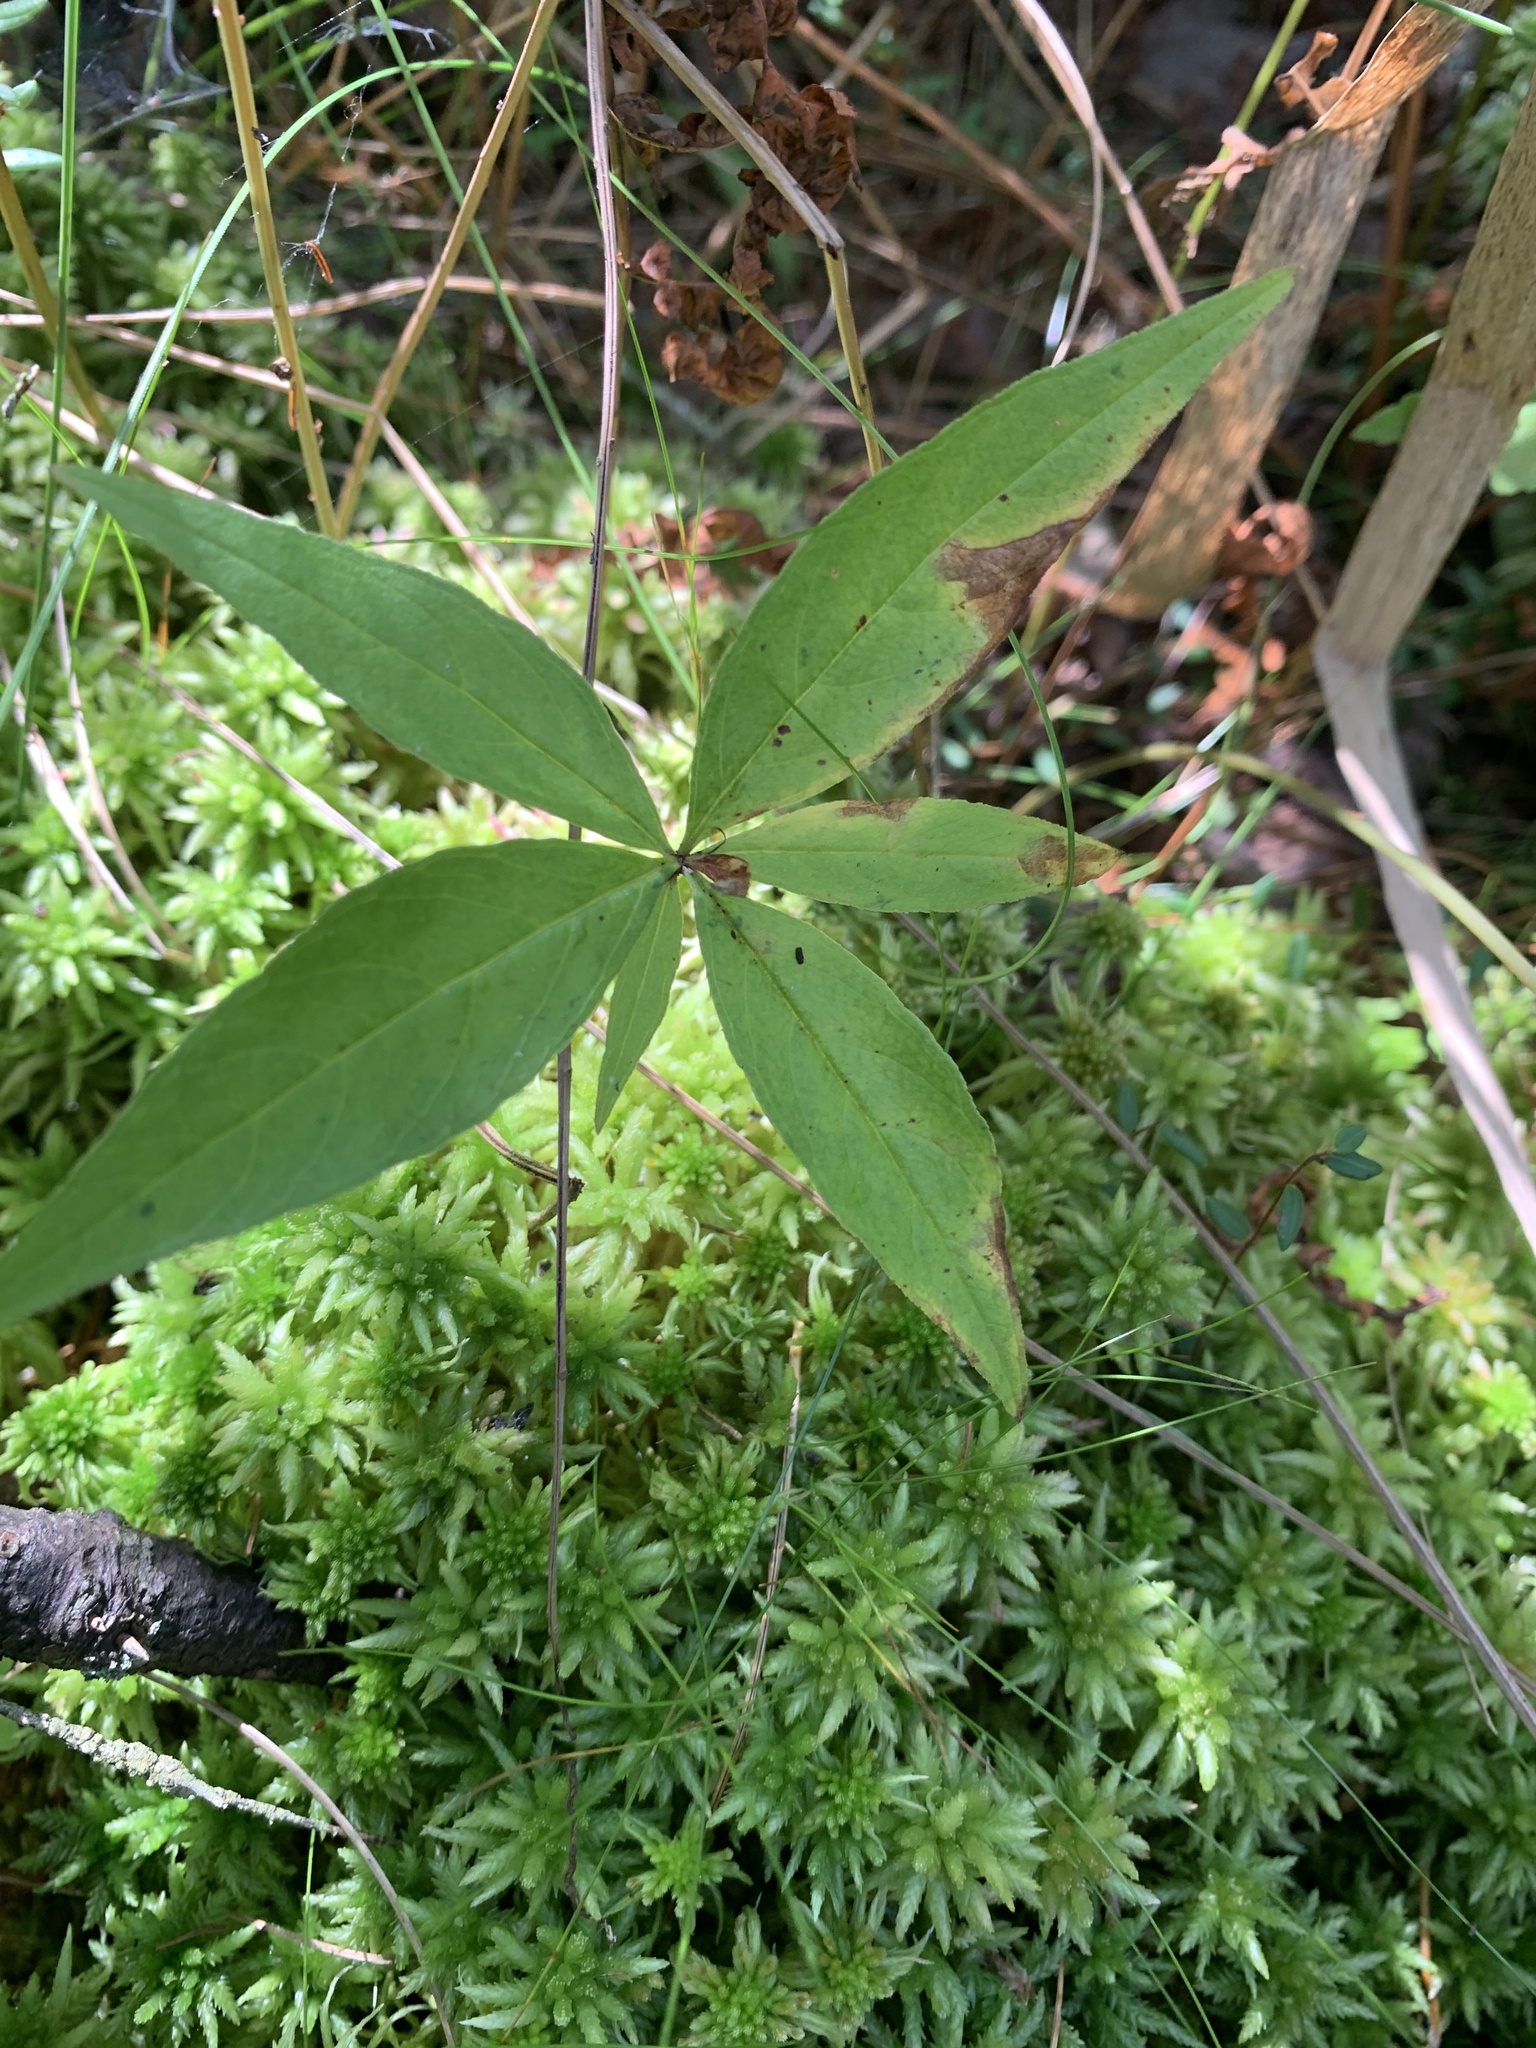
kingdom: Plantae
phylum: Tracheophyta
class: Magnoliopsida
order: Ericales
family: Primulaceae
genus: Lysimachia
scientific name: Lysimachia borealis
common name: American starflower
